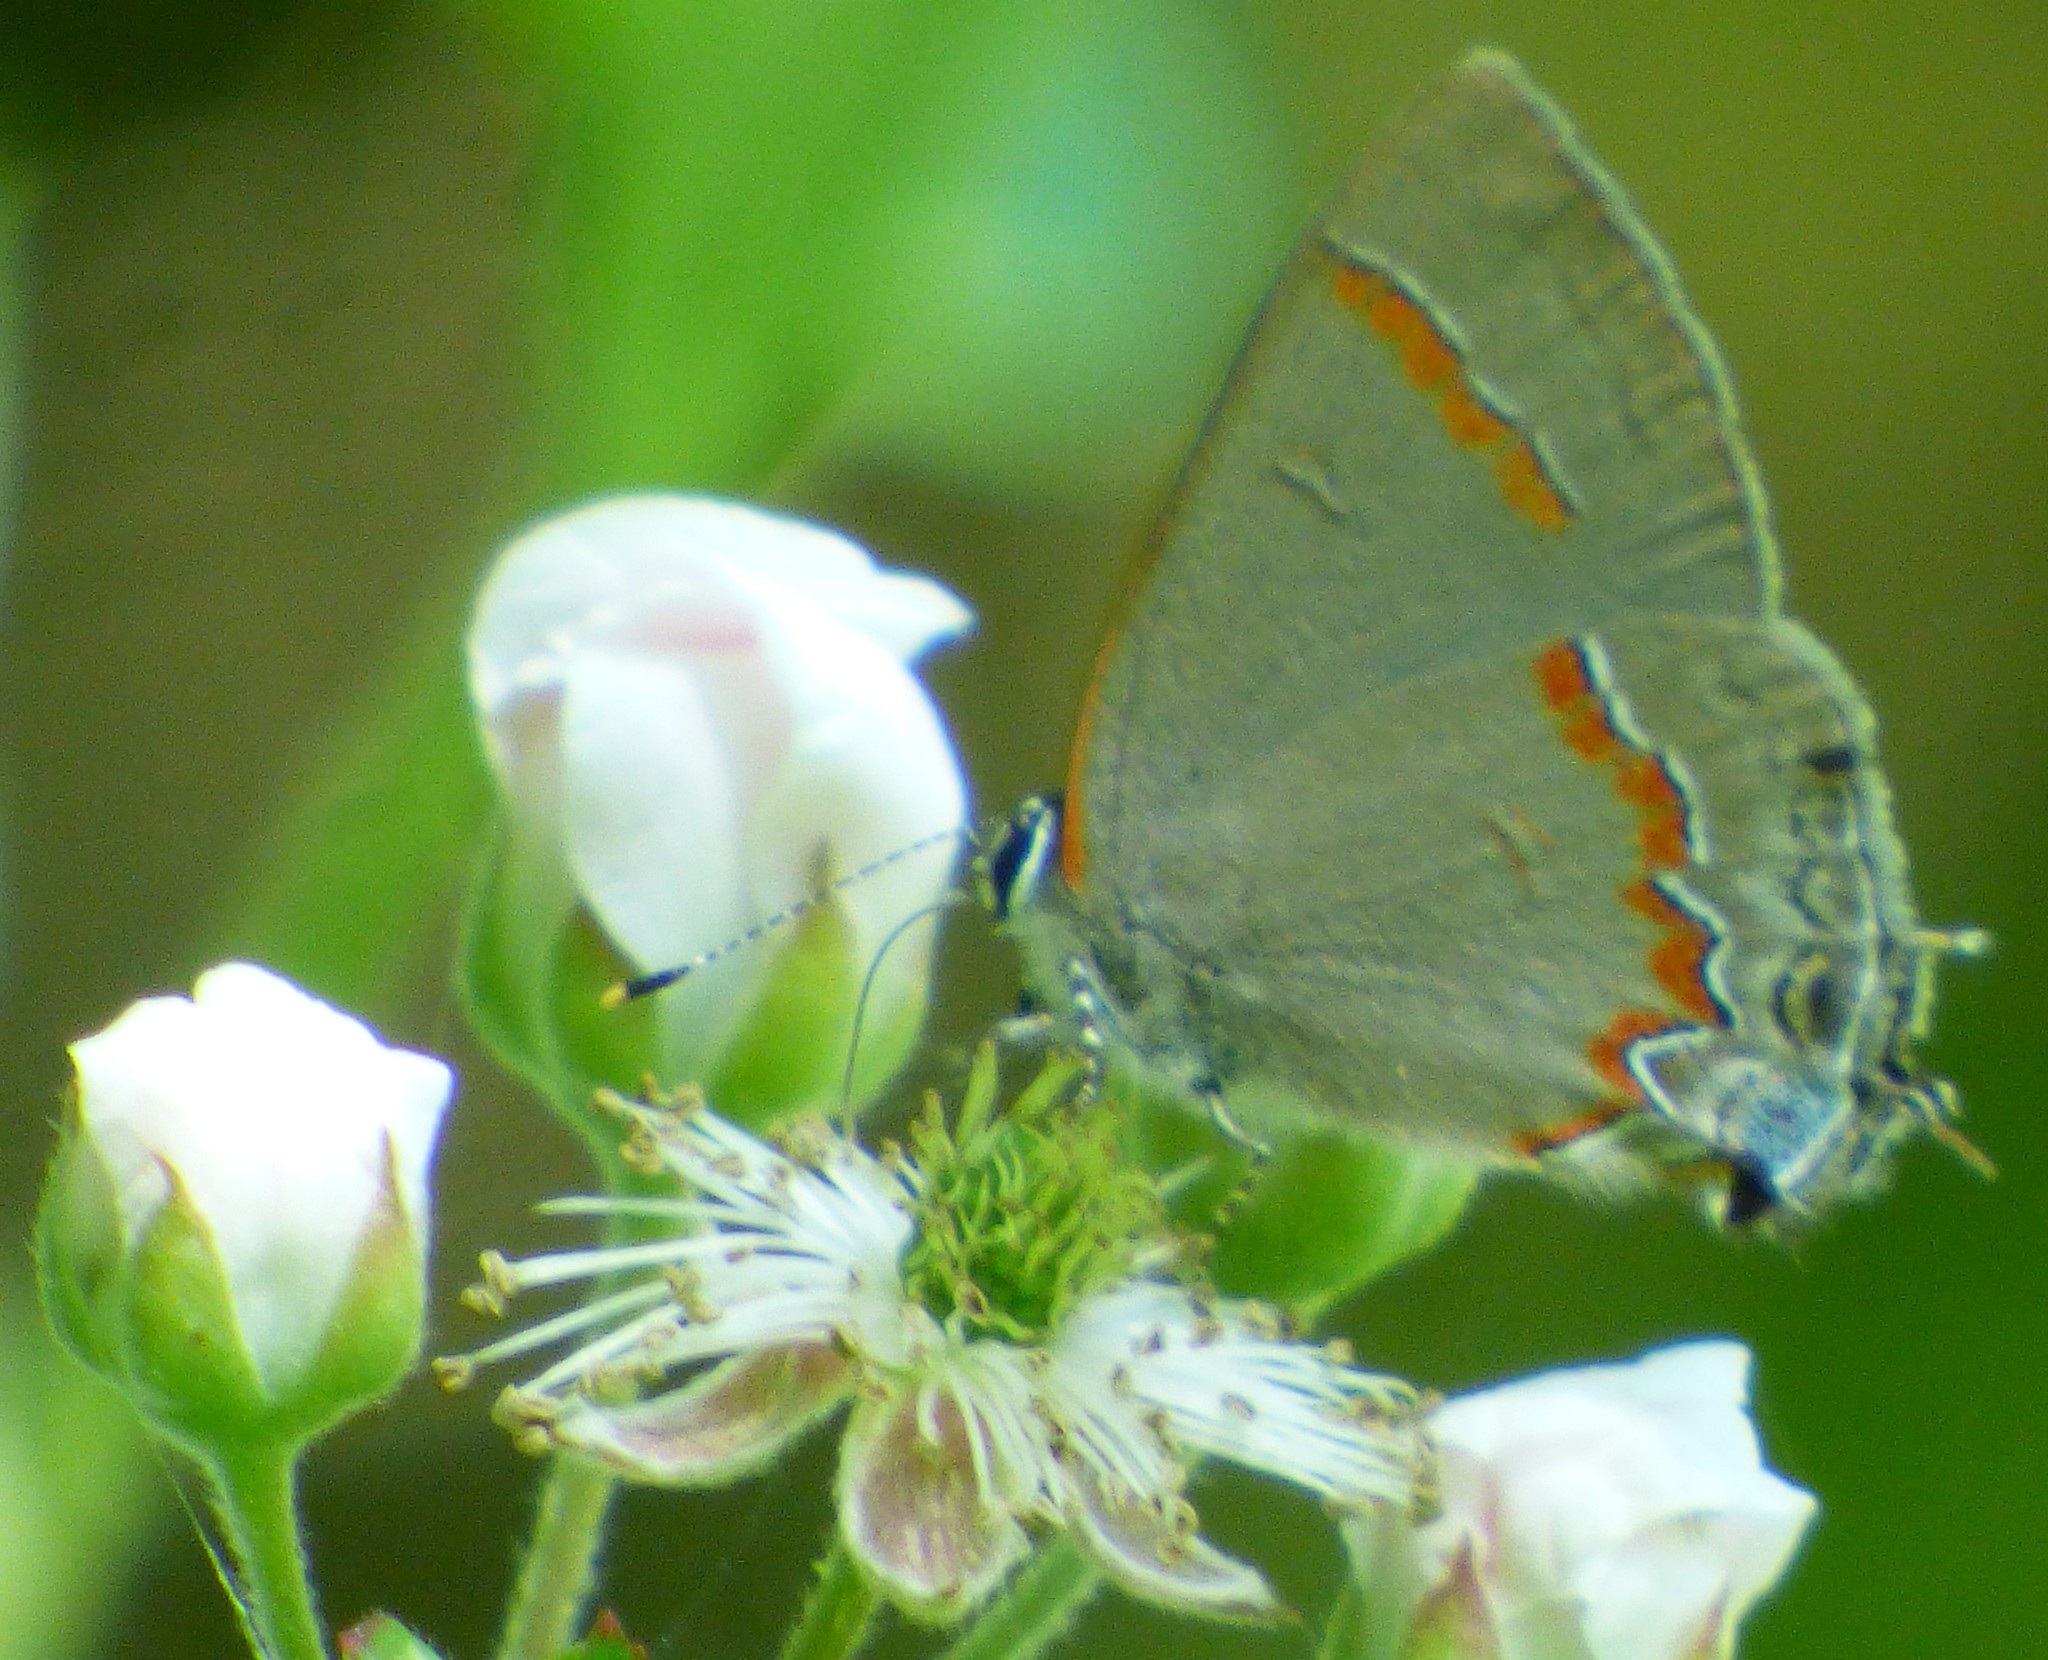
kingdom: Animalia
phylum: Arthropoda
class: Insecta
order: Lepidoptera
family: Lycaenidae
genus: Calycopis
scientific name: Calycopis cecrops
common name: Red-banded hairstreak
